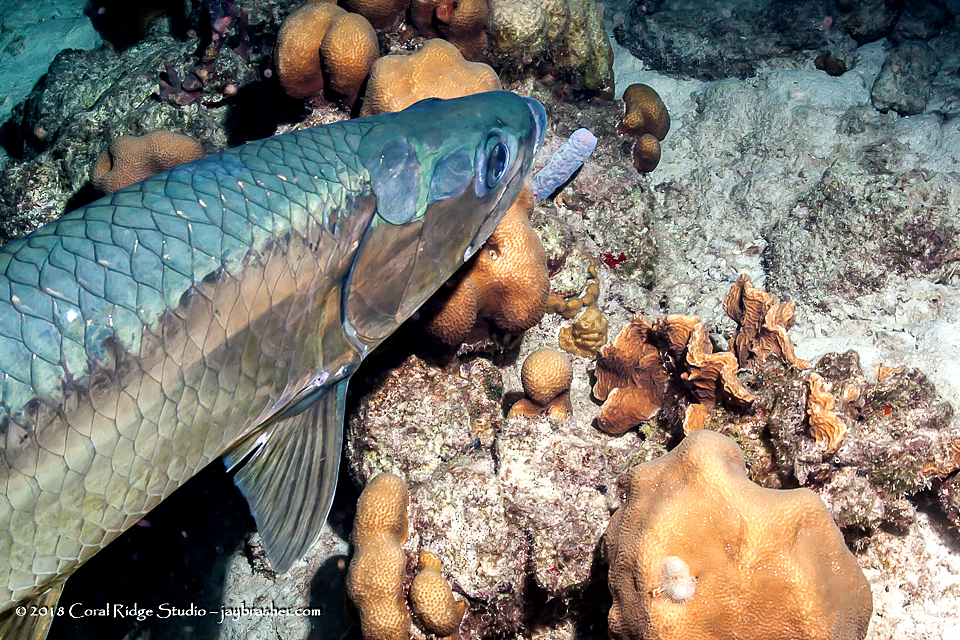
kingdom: Animalia
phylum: Chordata
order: Elopiformes
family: Megalopidae
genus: Megalops
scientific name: Megalops atlanticus
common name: Tarpon
